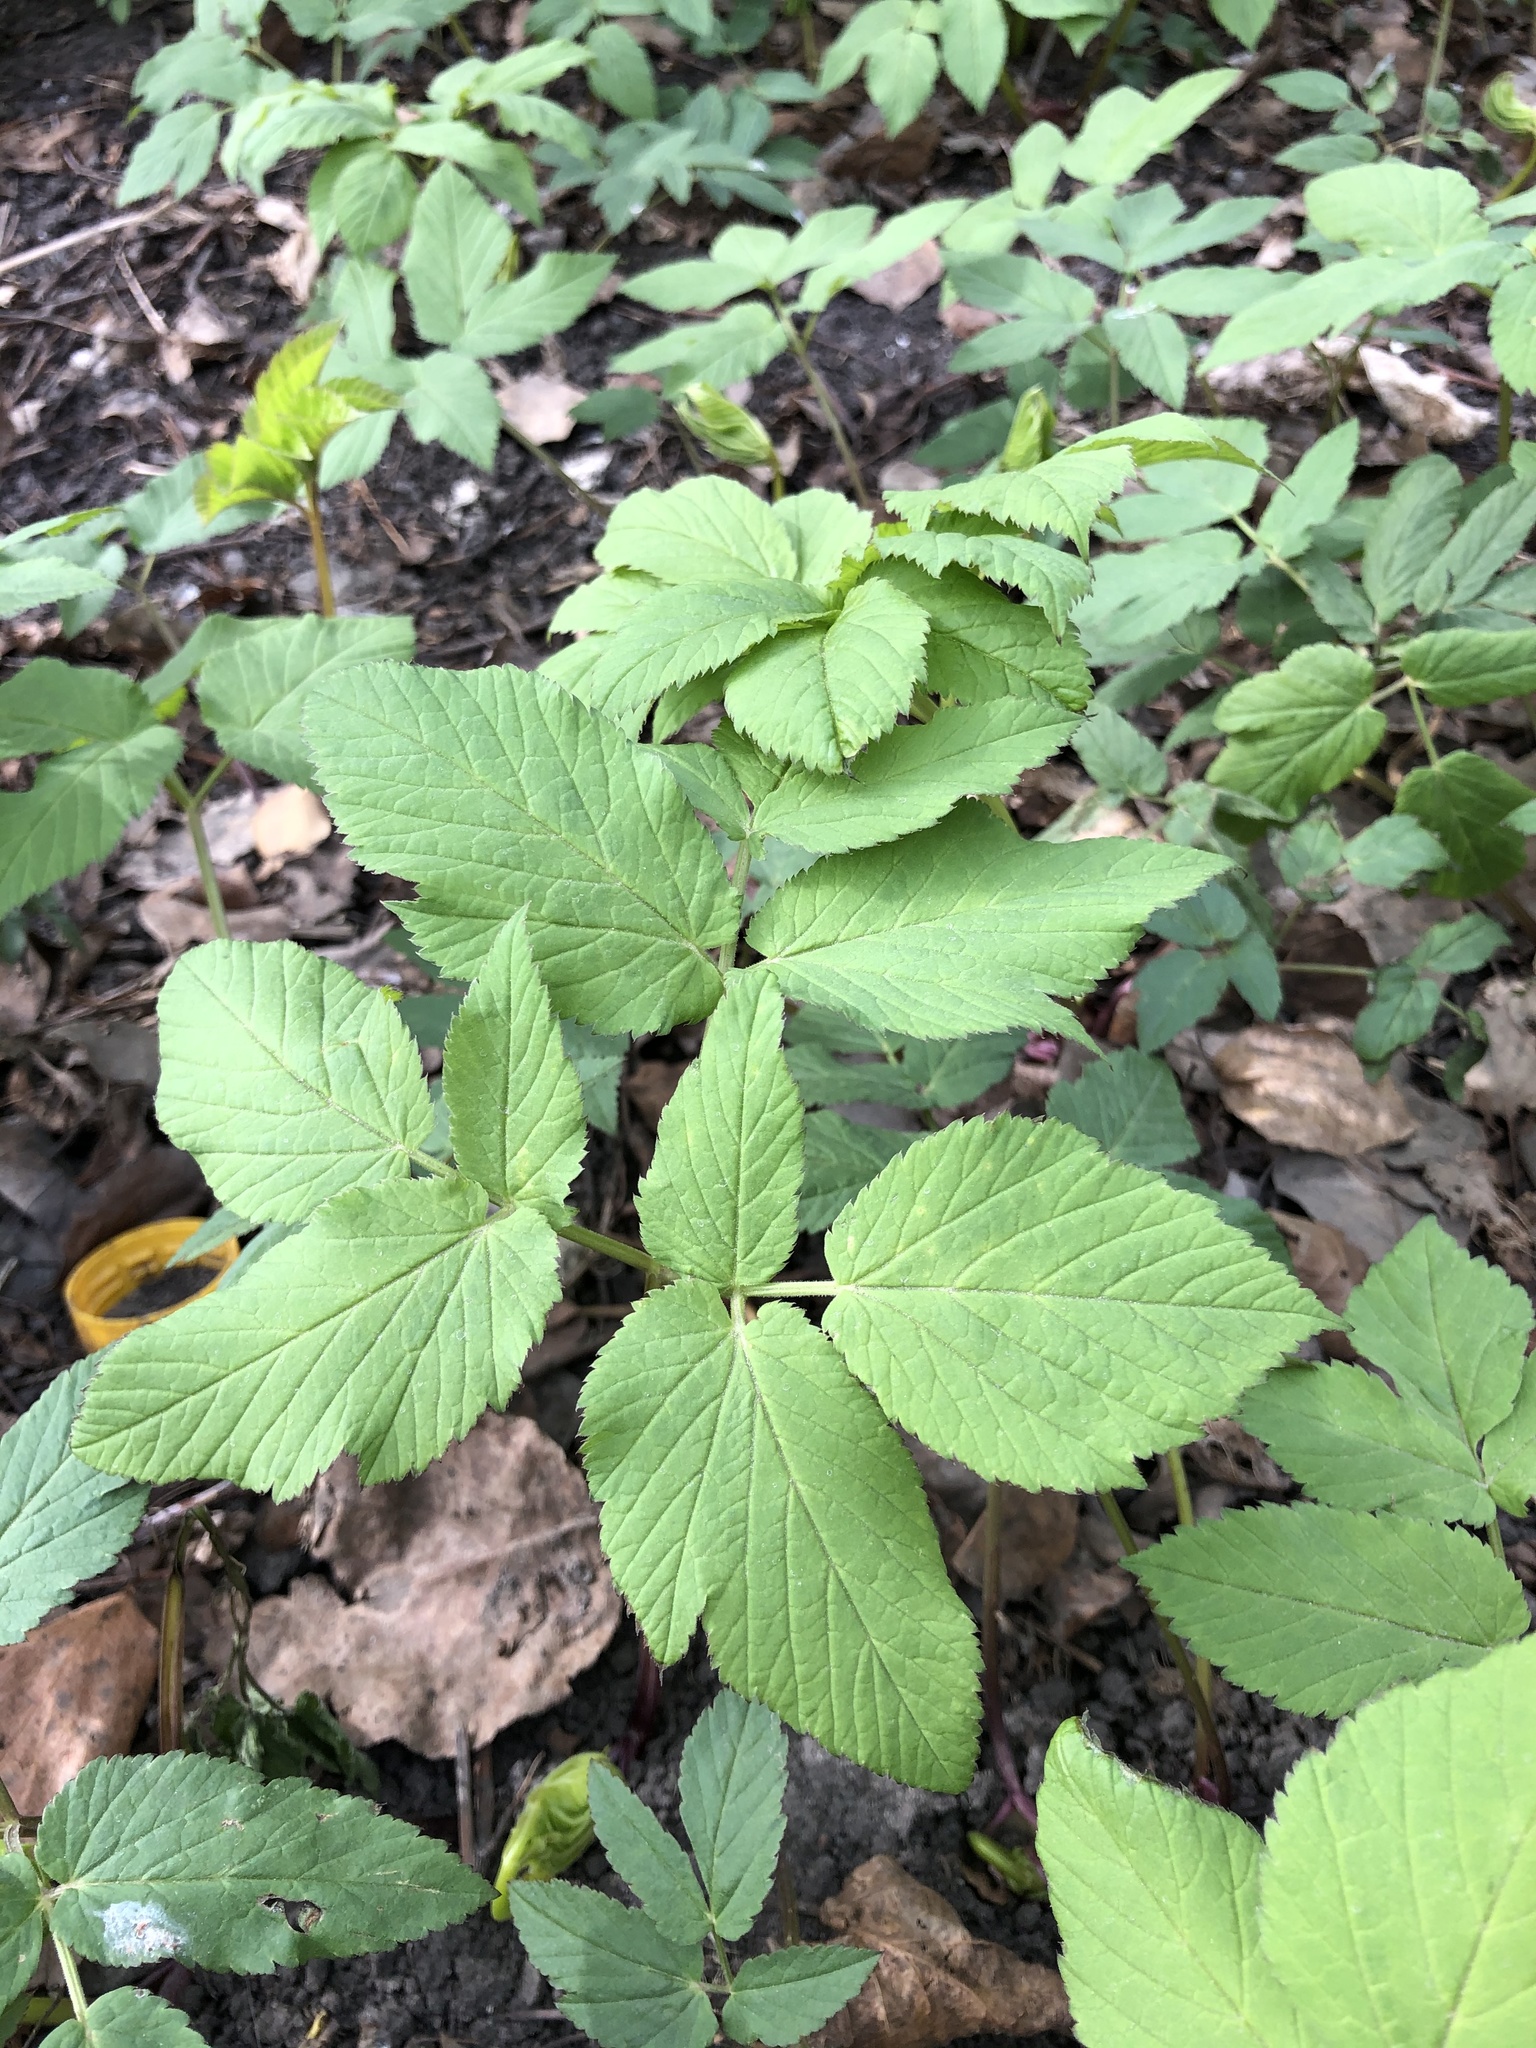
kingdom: Plantae
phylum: Tracheophyta
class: Magnoliopsida
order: Apiales
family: Apiaceae
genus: Aegopodium
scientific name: Aegopodium podagraria
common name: Ground-elder
